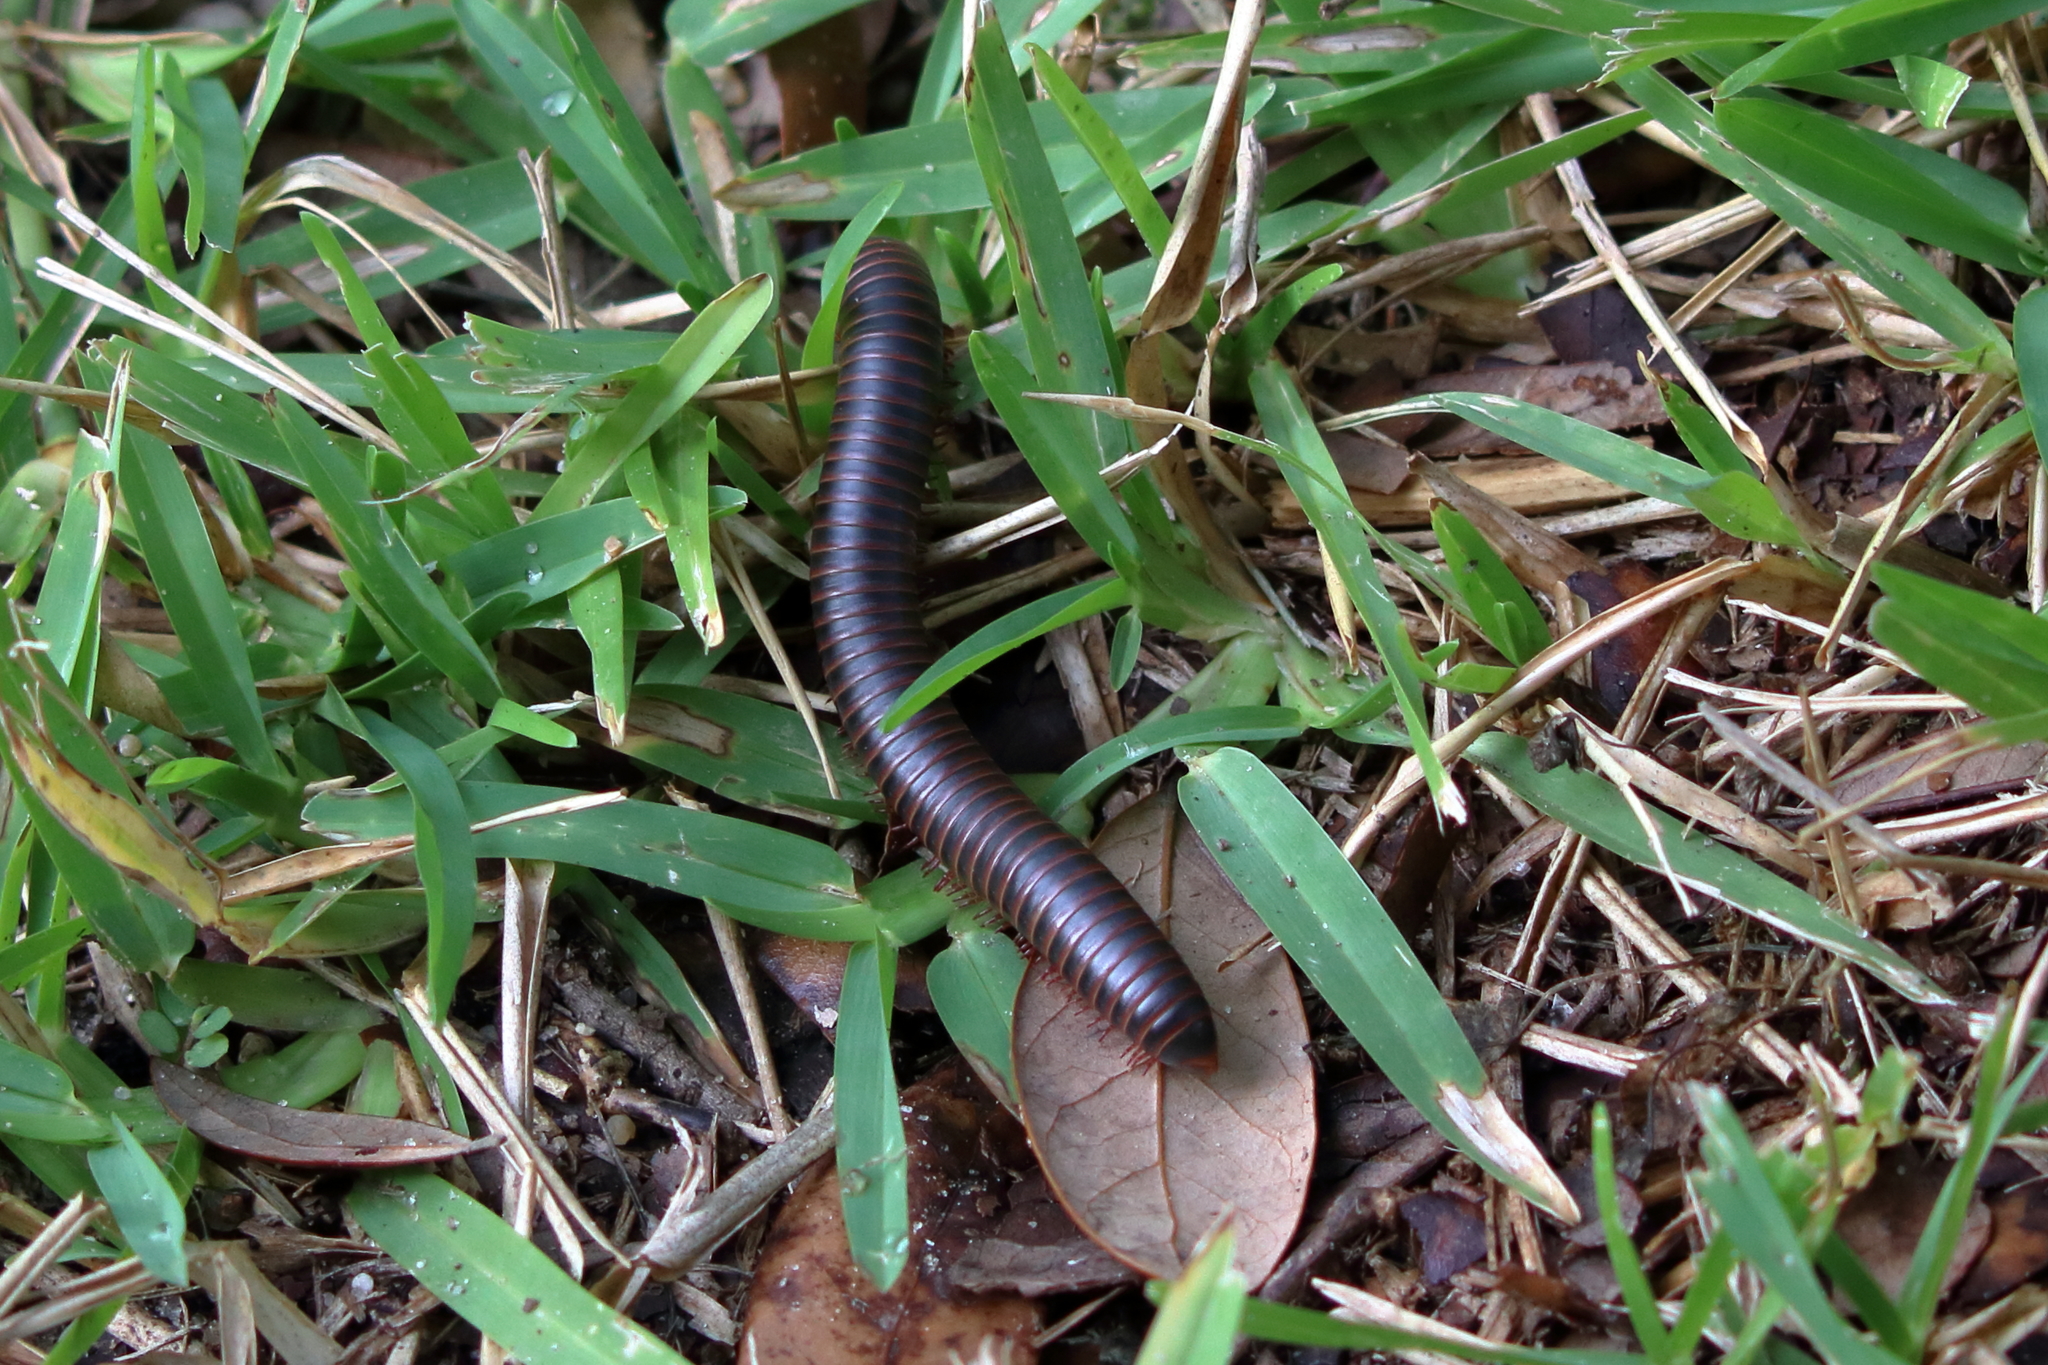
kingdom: Animalia
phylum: Arthropoda
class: Diplopoda
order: Spirobolida
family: Spirobolidae
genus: Narceus
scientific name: Narceus
